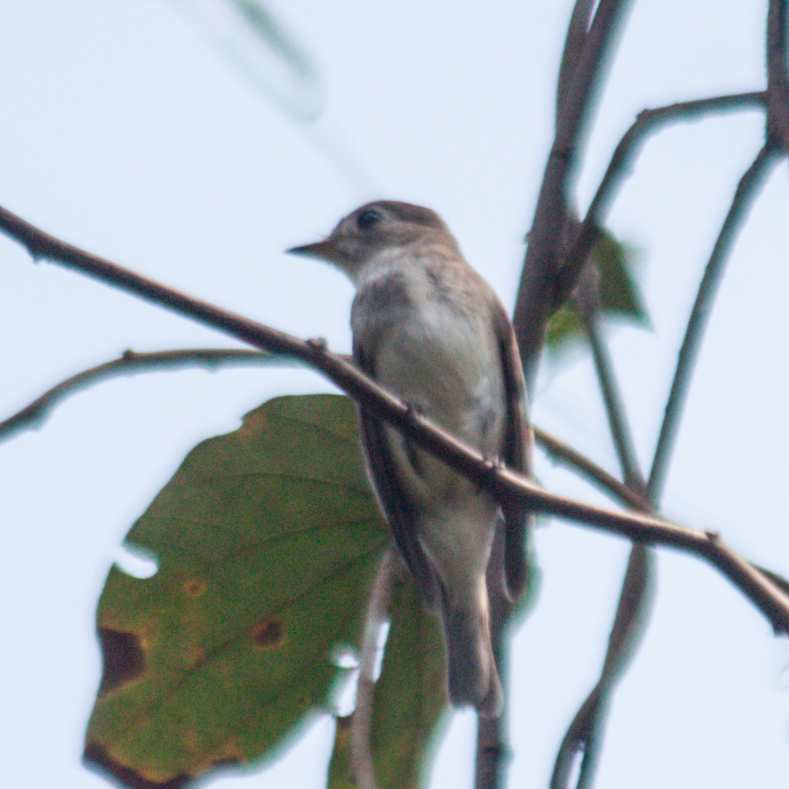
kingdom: Animalia
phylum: Chordata
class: Aves
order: Passeriformes
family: Muscicapidae
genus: Muscicapa
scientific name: Muscicapa latirostris
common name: Asian brown flycatcher
